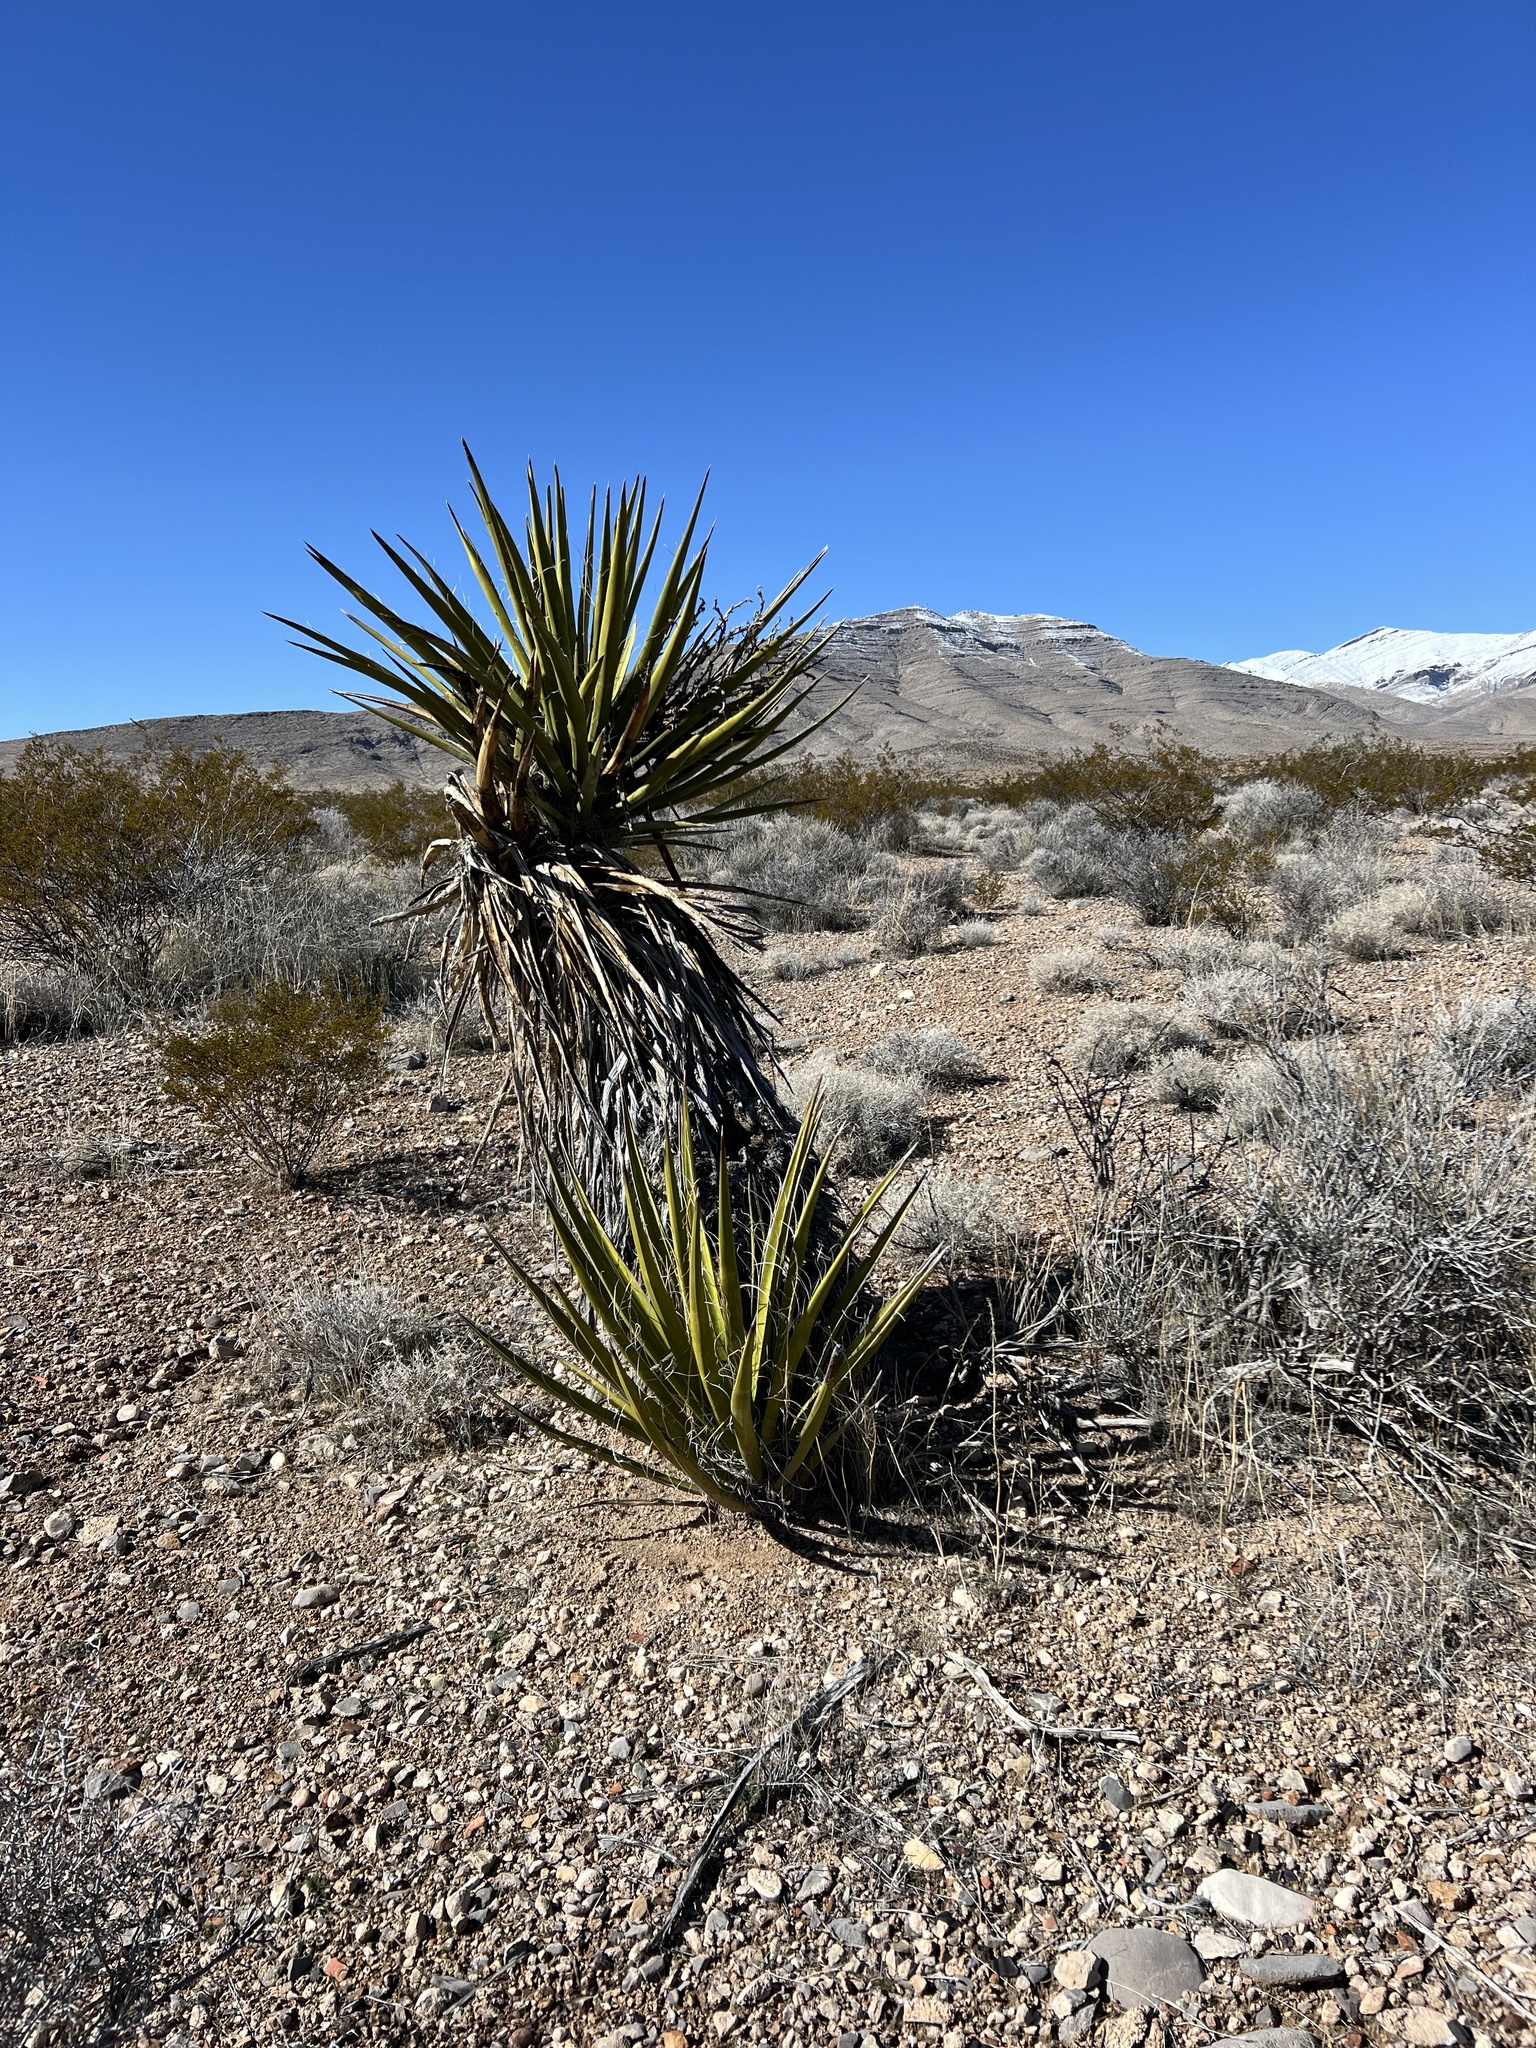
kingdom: Plantae
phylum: Tracheophyta
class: Liliopsida
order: Asparagales
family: Asparagaceae
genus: Yucca
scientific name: Yucca schidigera
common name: Mojave yucca
